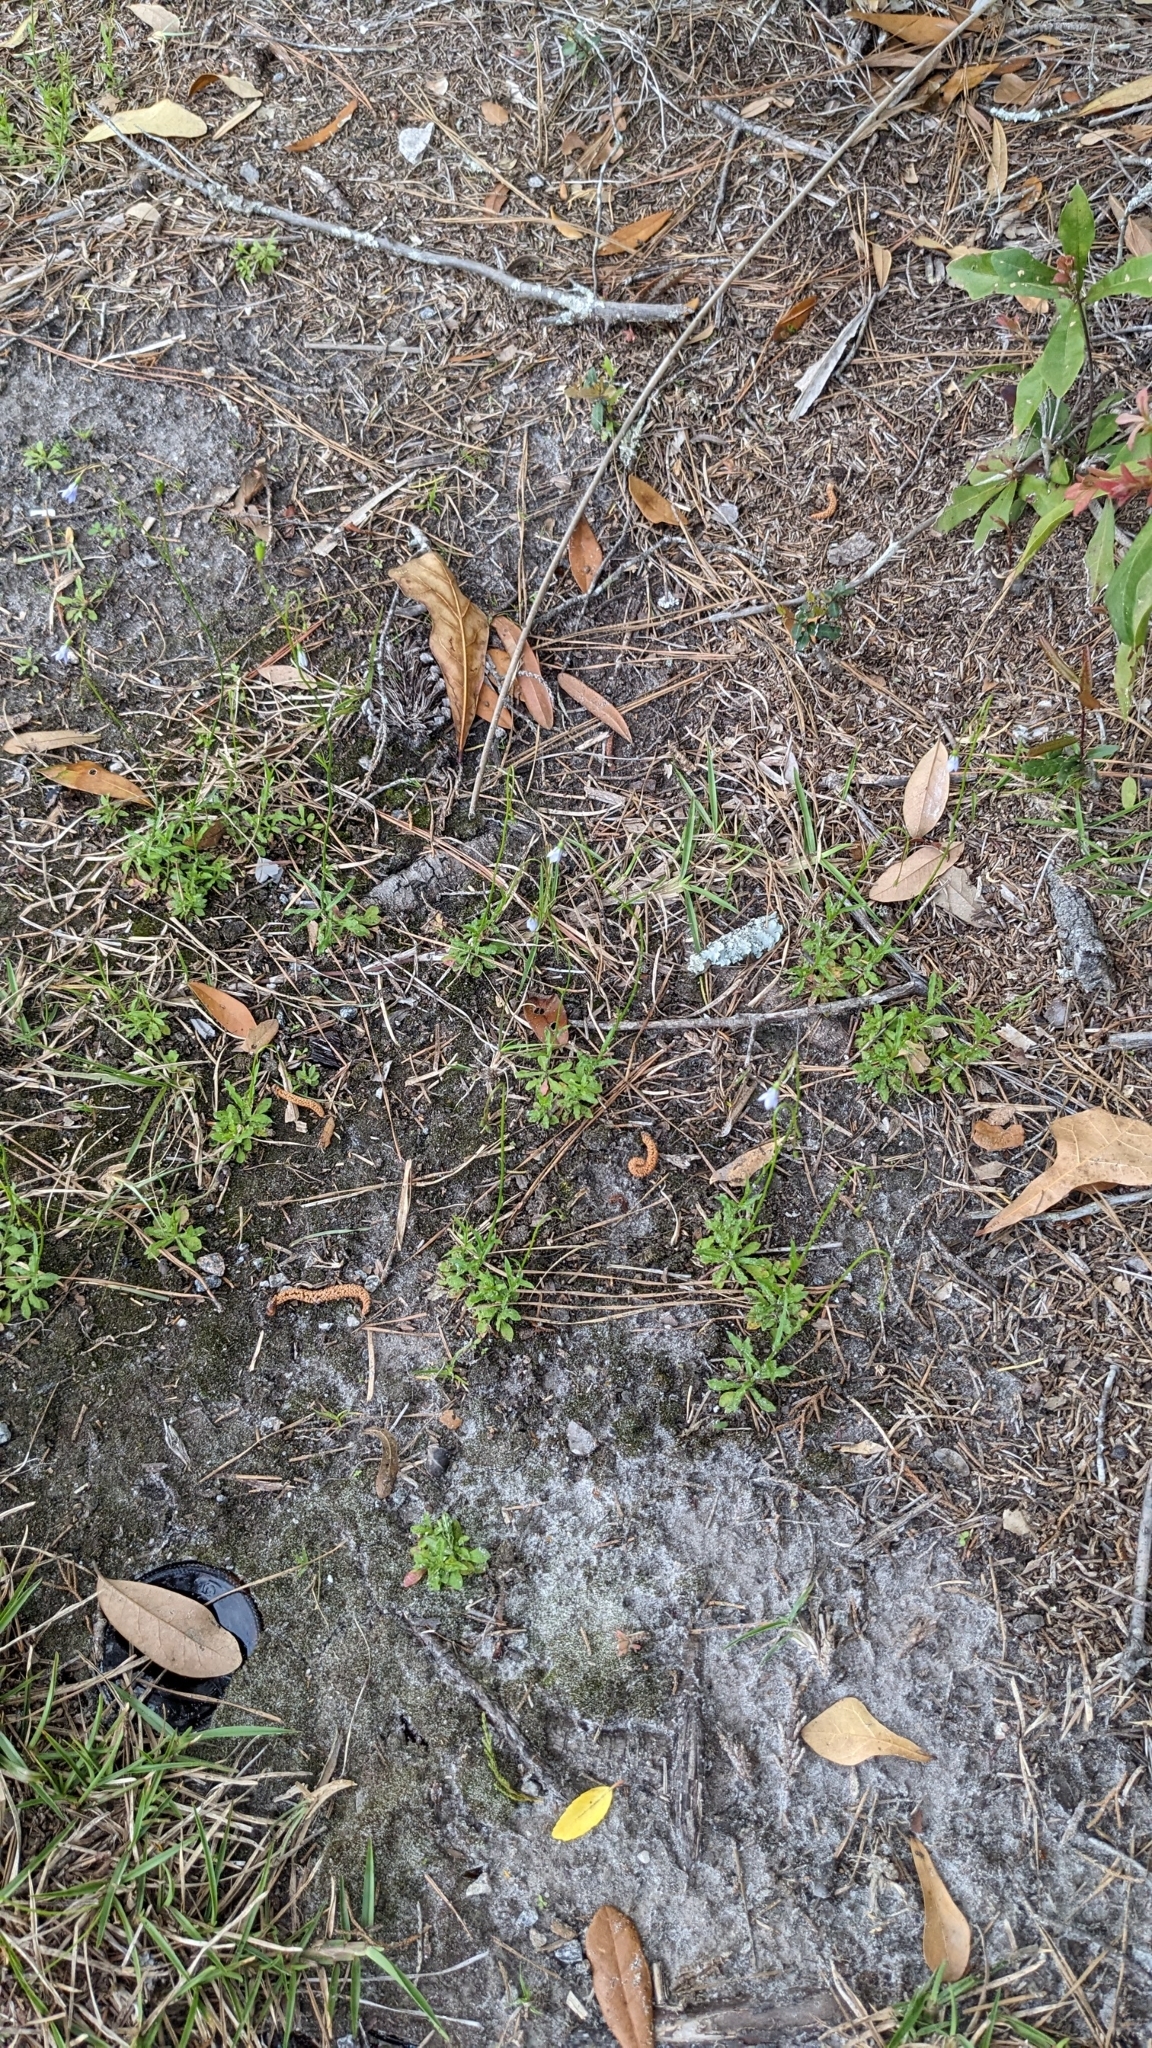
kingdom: Plantae
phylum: Tracheophyta
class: Magnoliopsida
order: Asterales
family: Campanulaceae
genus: Wahlenbergia
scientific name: Wahlenbergia marginata
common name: Southern rockbell
